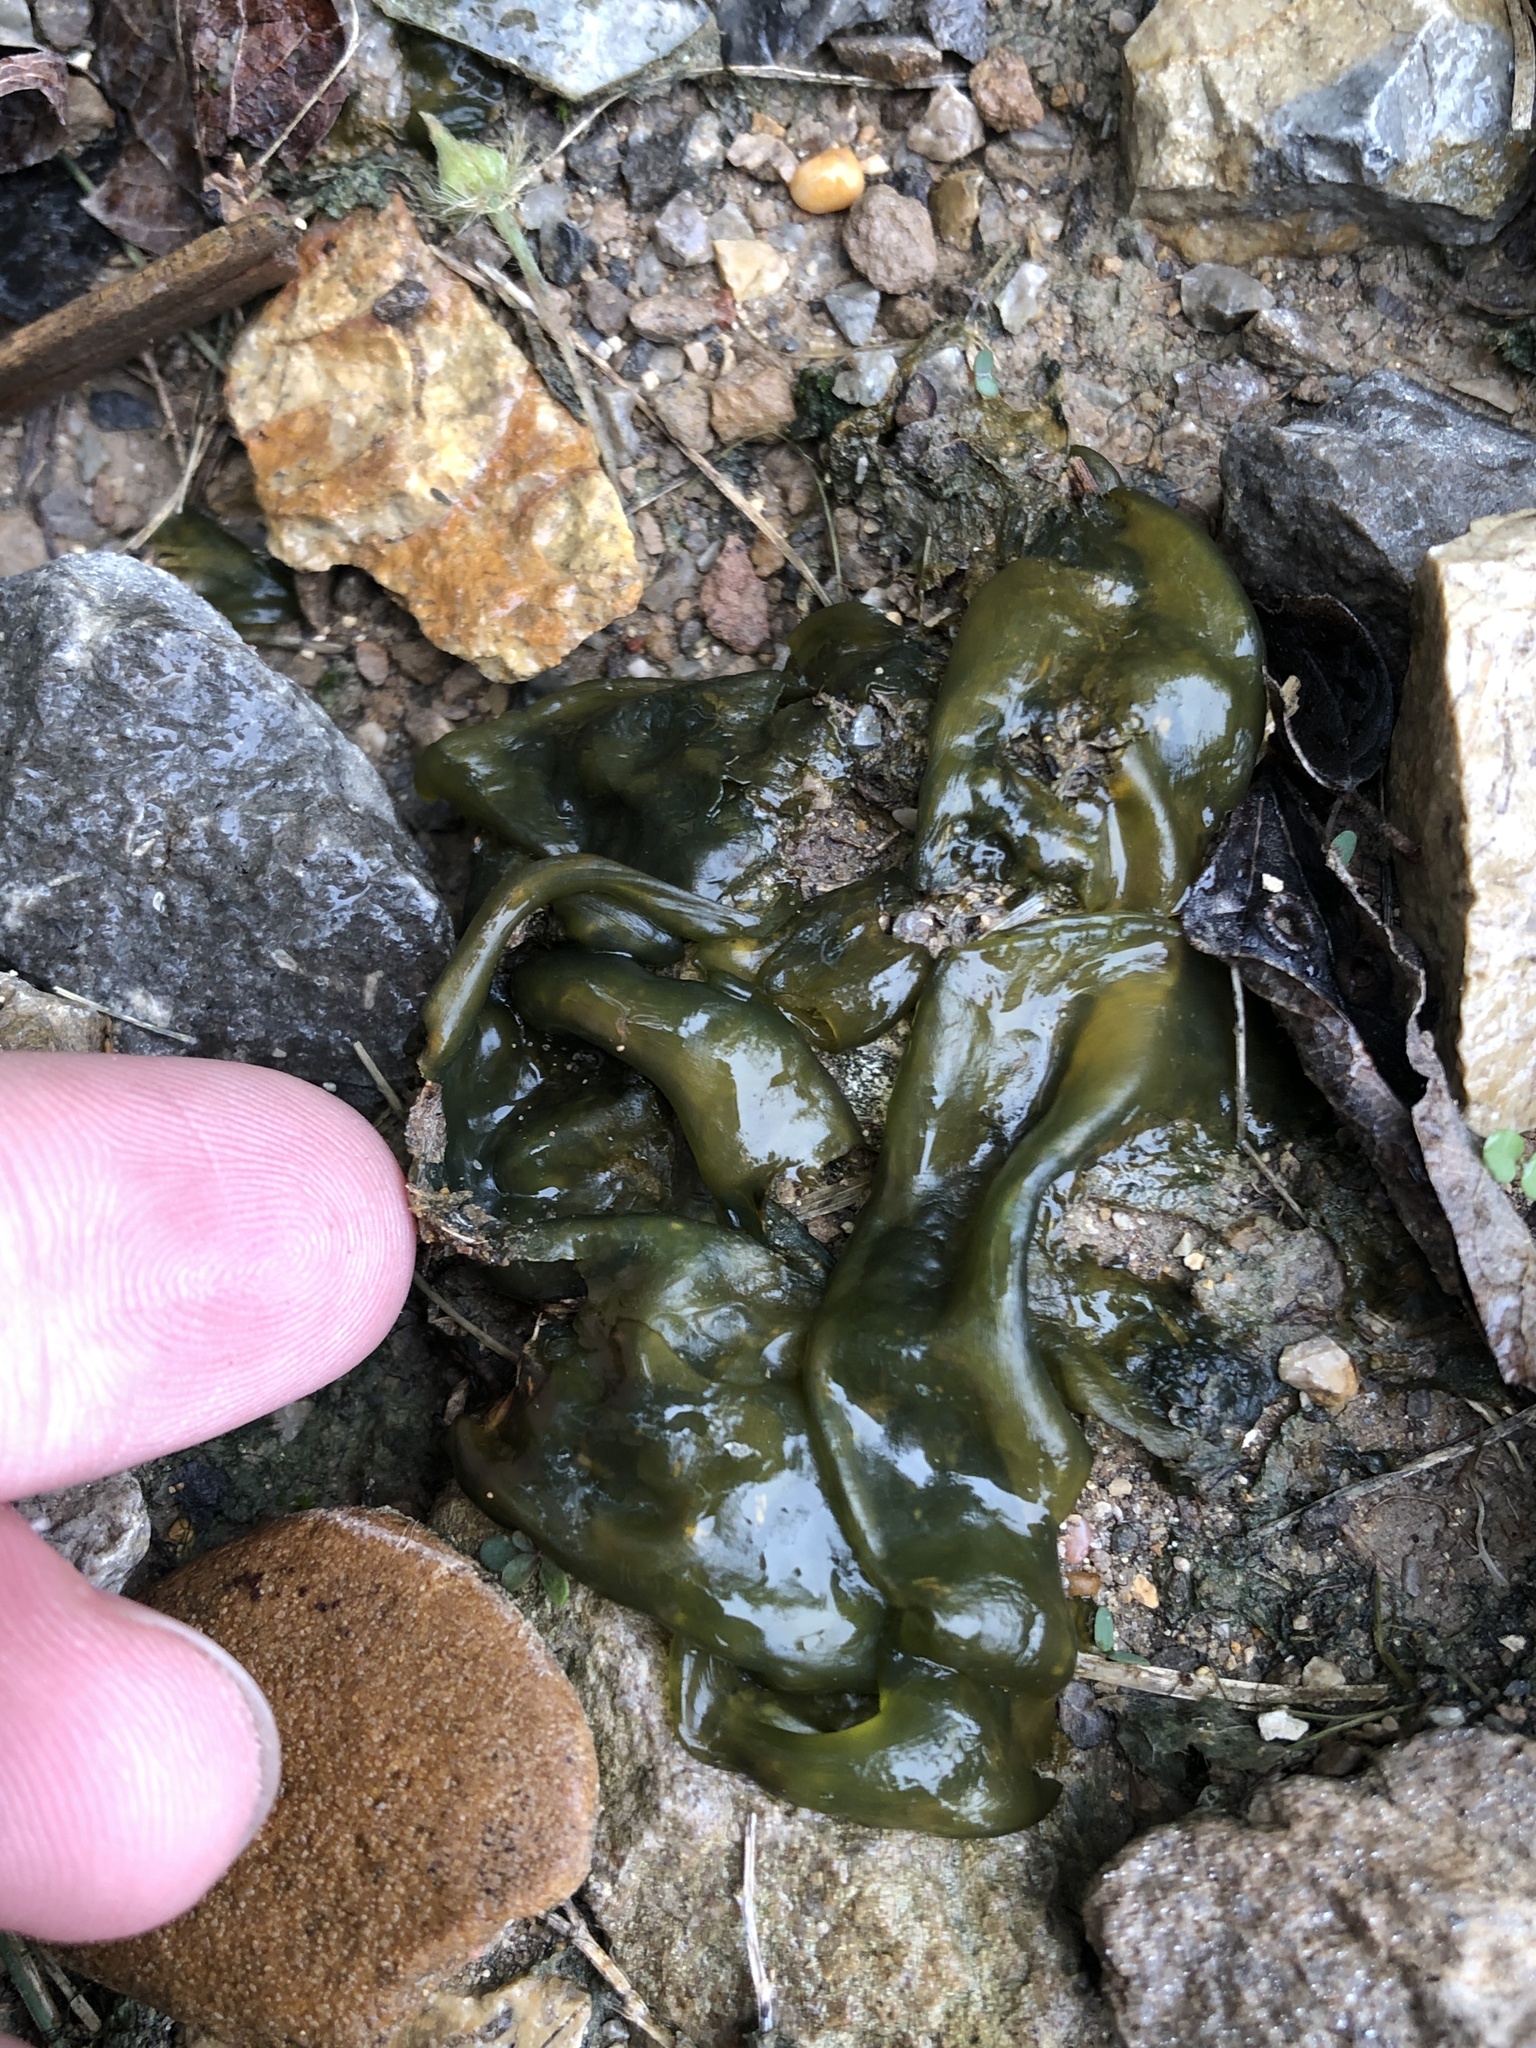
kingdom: Bacteria
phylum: Cyanobacteria
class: Cyanobacteriia
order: Cyanobacteriales
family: Nostocaceae
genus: Nostoc
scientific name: Nostoc commune
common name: Star jelly
